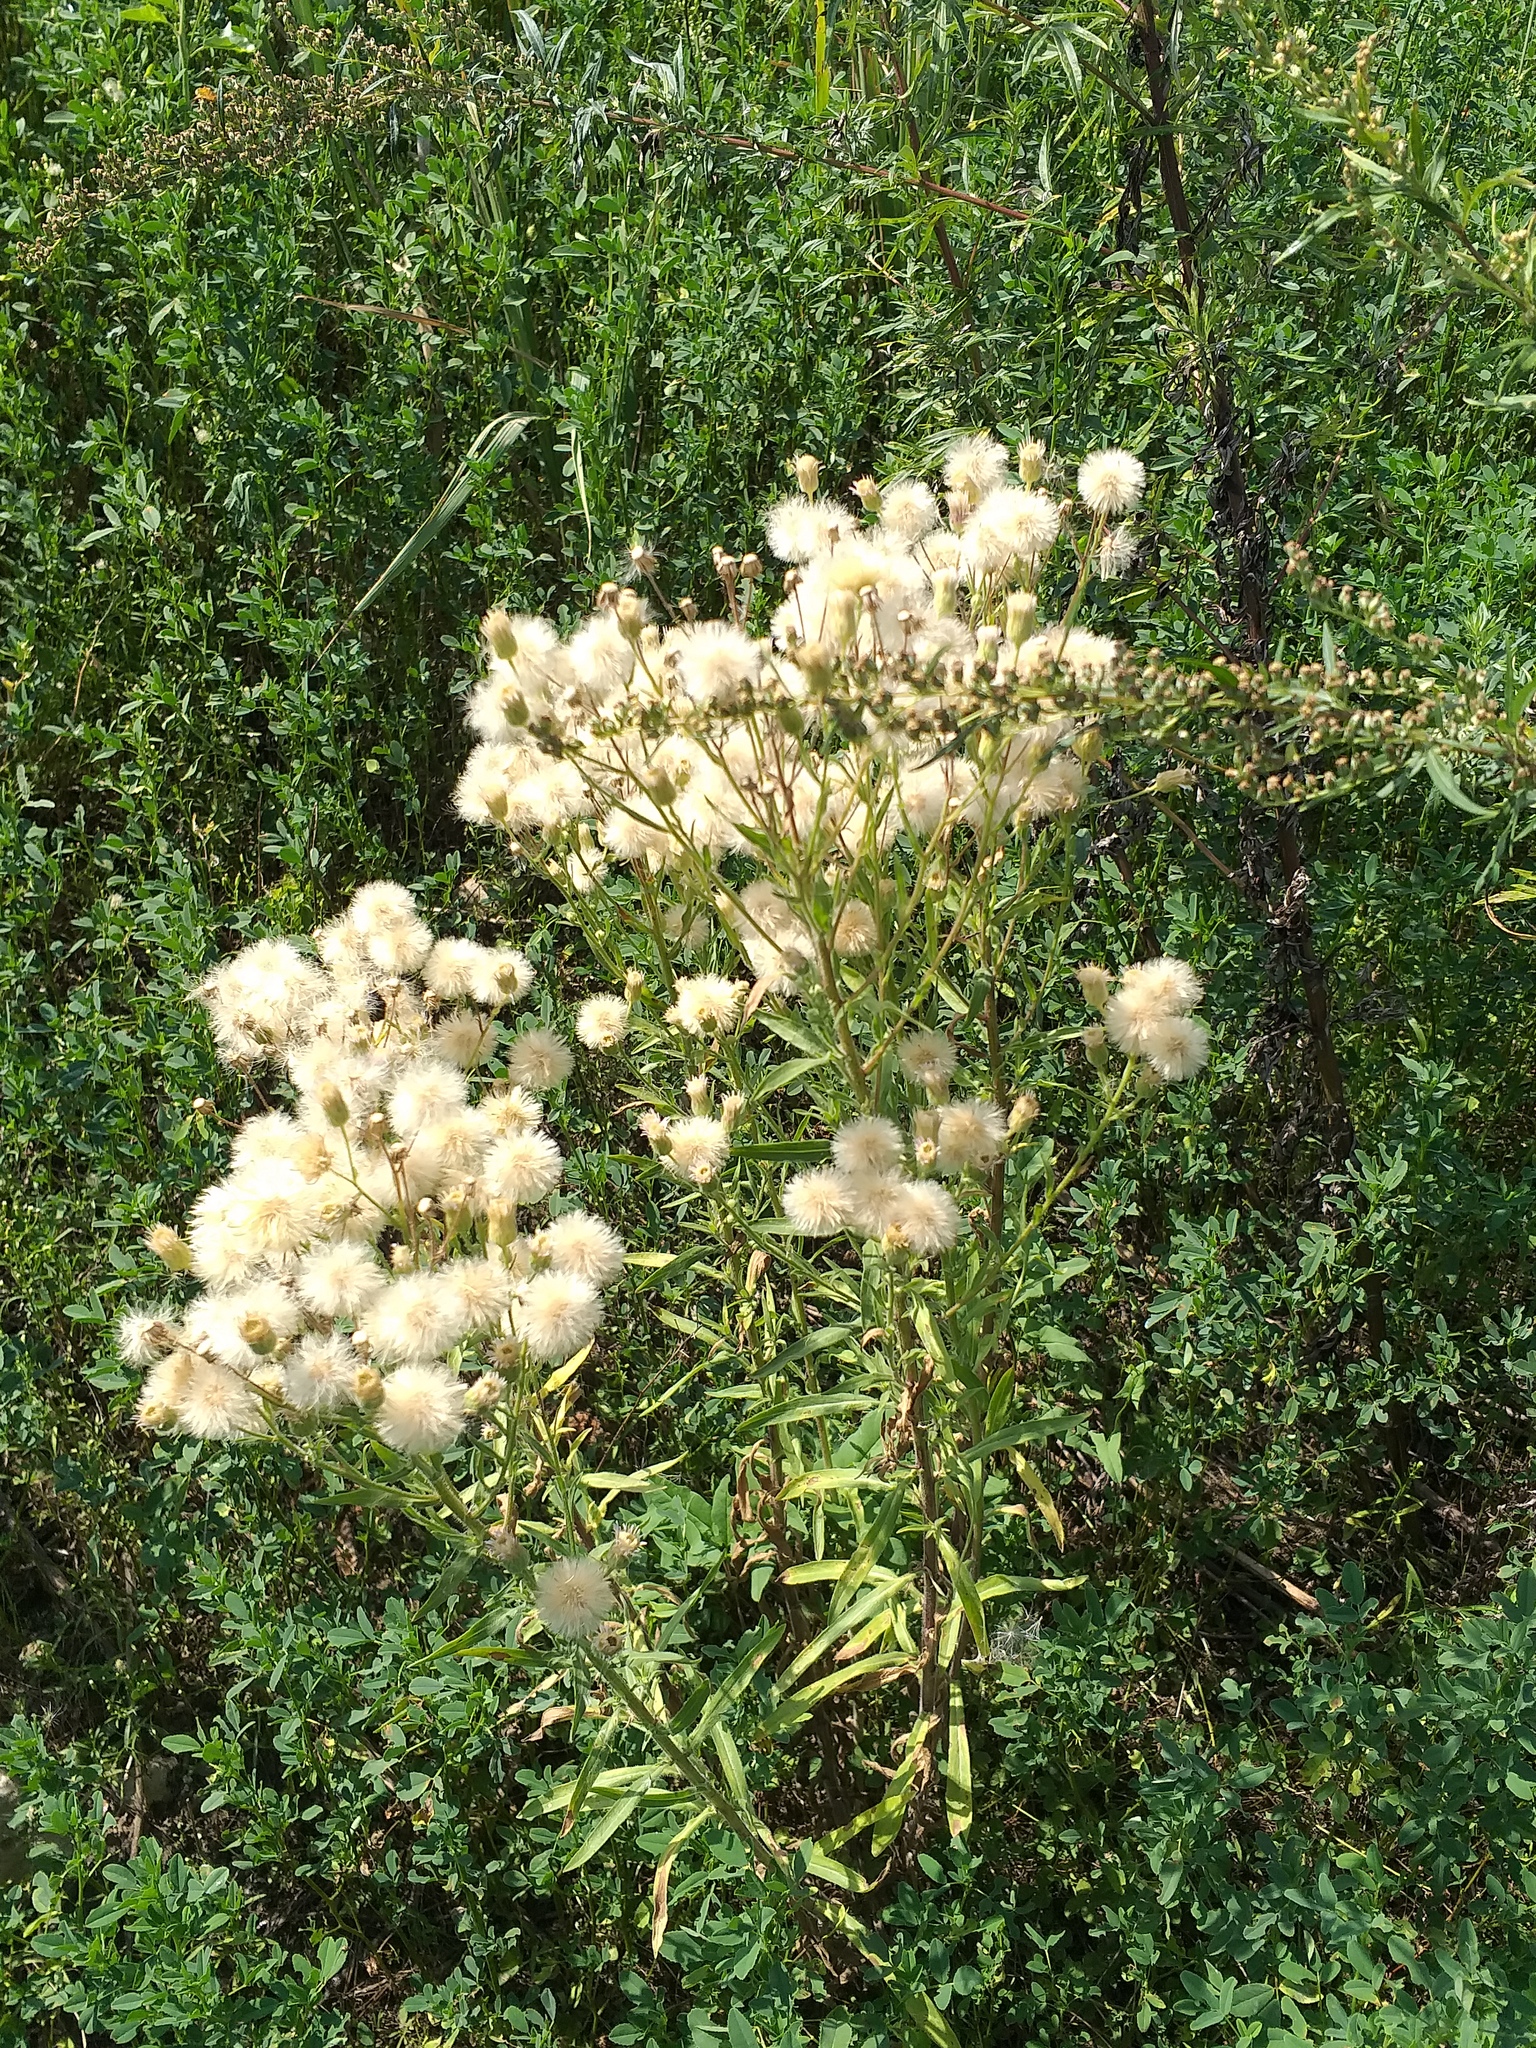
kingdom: Plantae
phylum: Tracheophyta
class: Magnoliopsida
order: Asterales
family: Asteraceae
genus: Erigeron
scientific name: Erigeron podolicus
